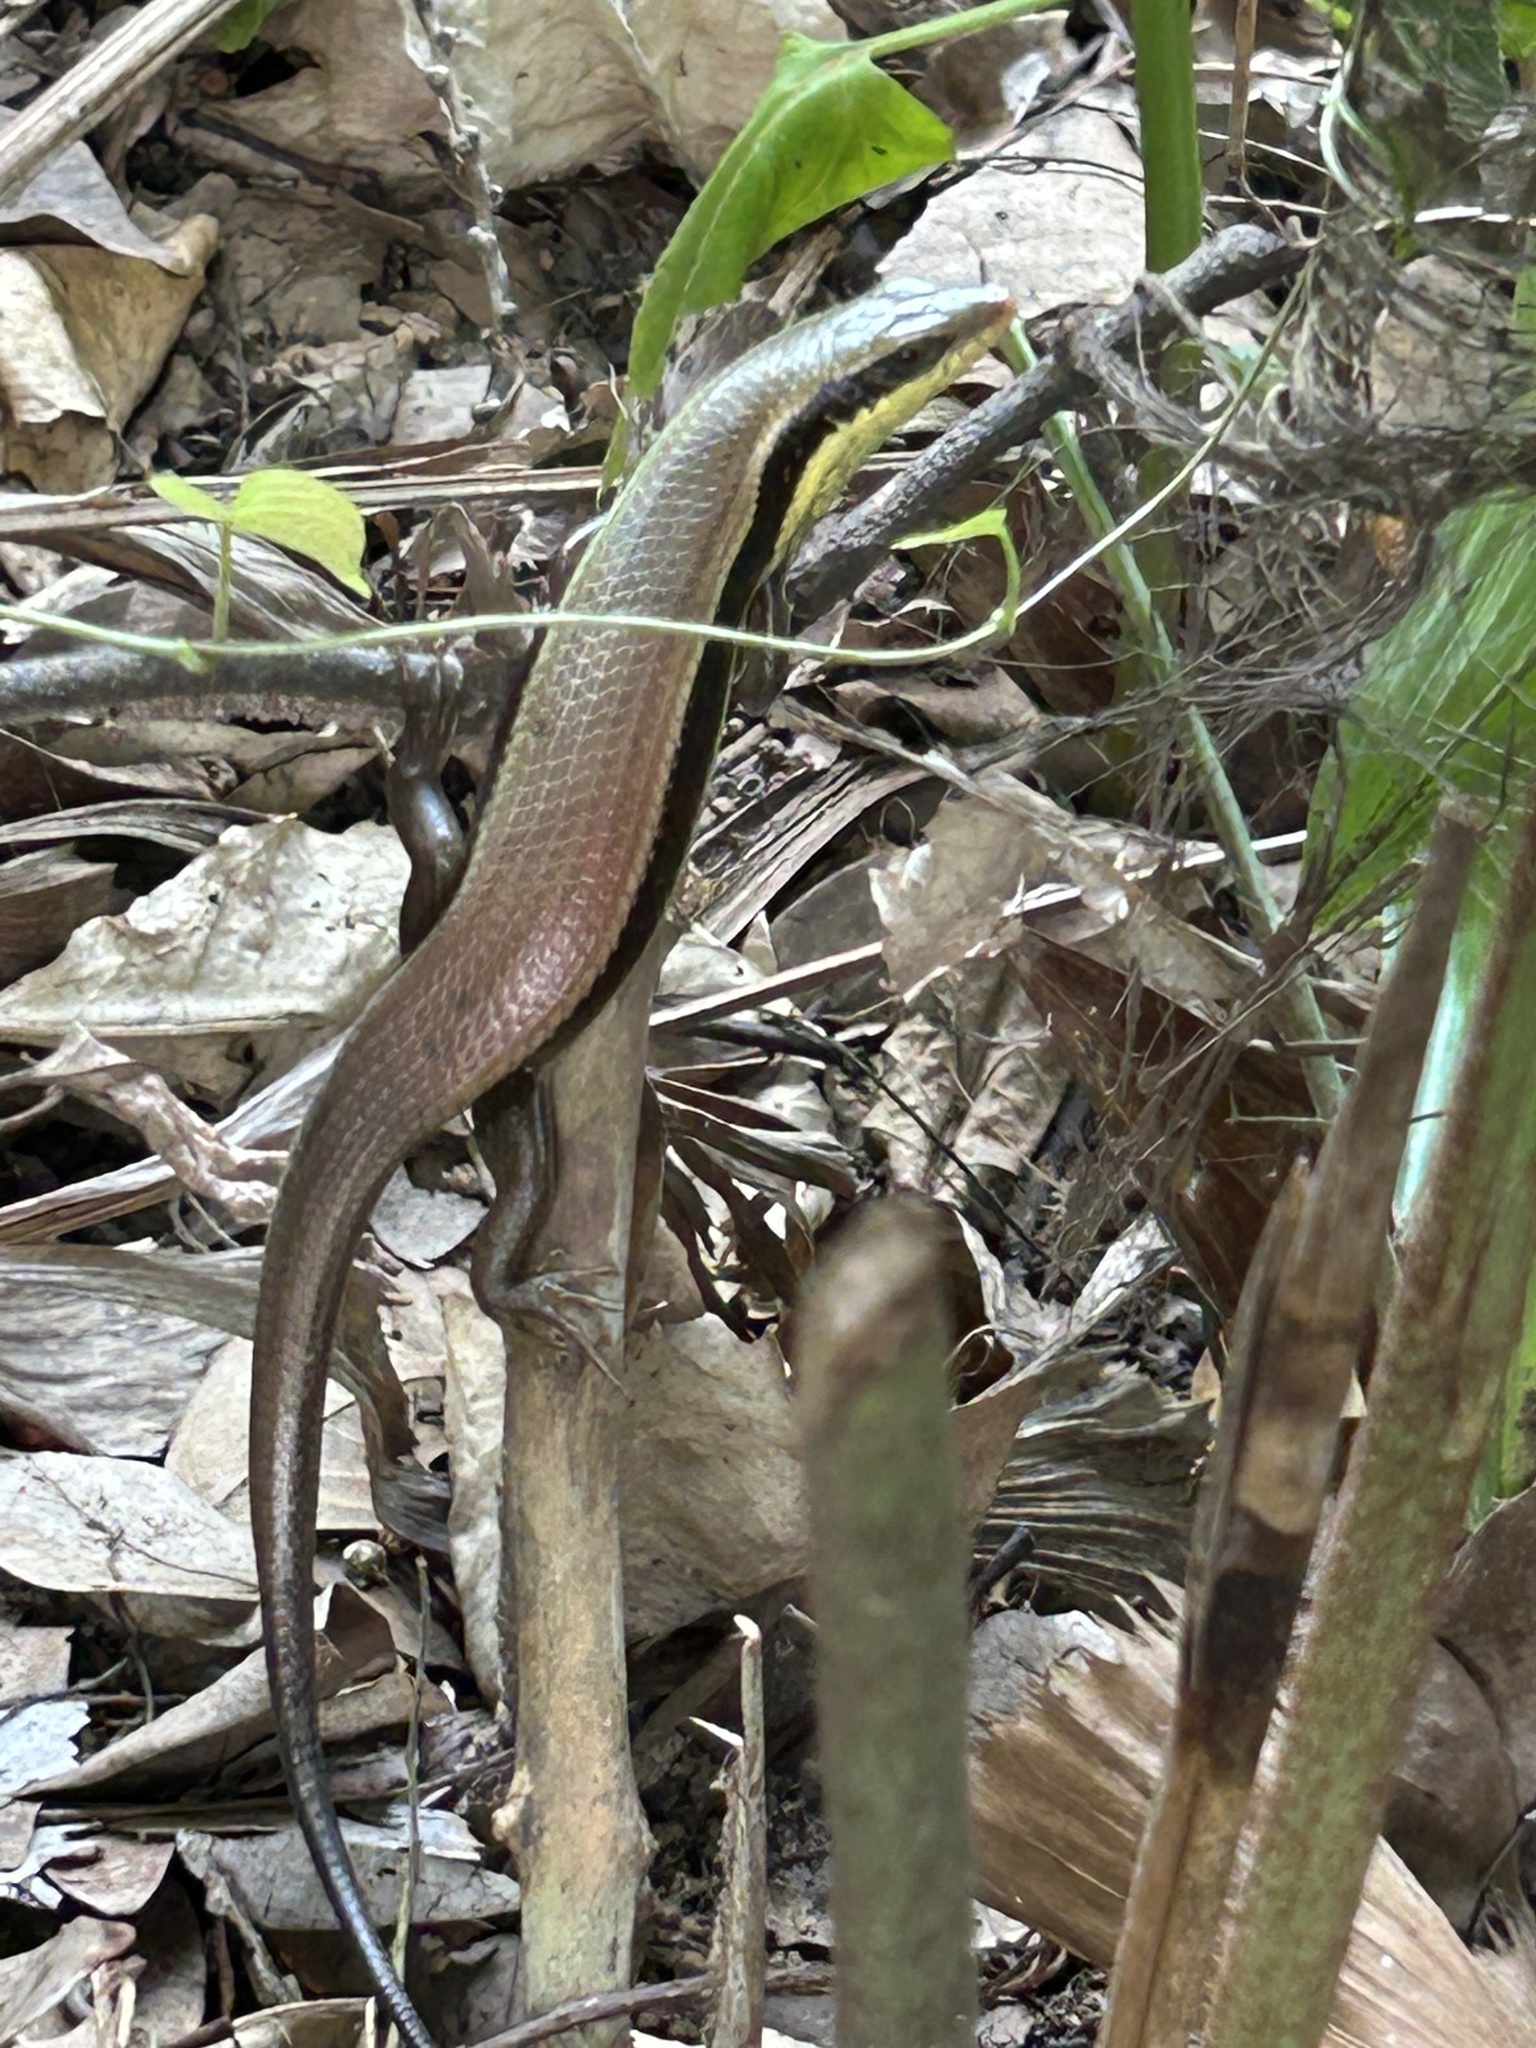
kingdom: Animalia
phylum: Chordata
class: Squamata
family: Scincidae
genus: Eutropis
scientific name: Eutropis longicaudata
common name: Long-tailed sun skink
